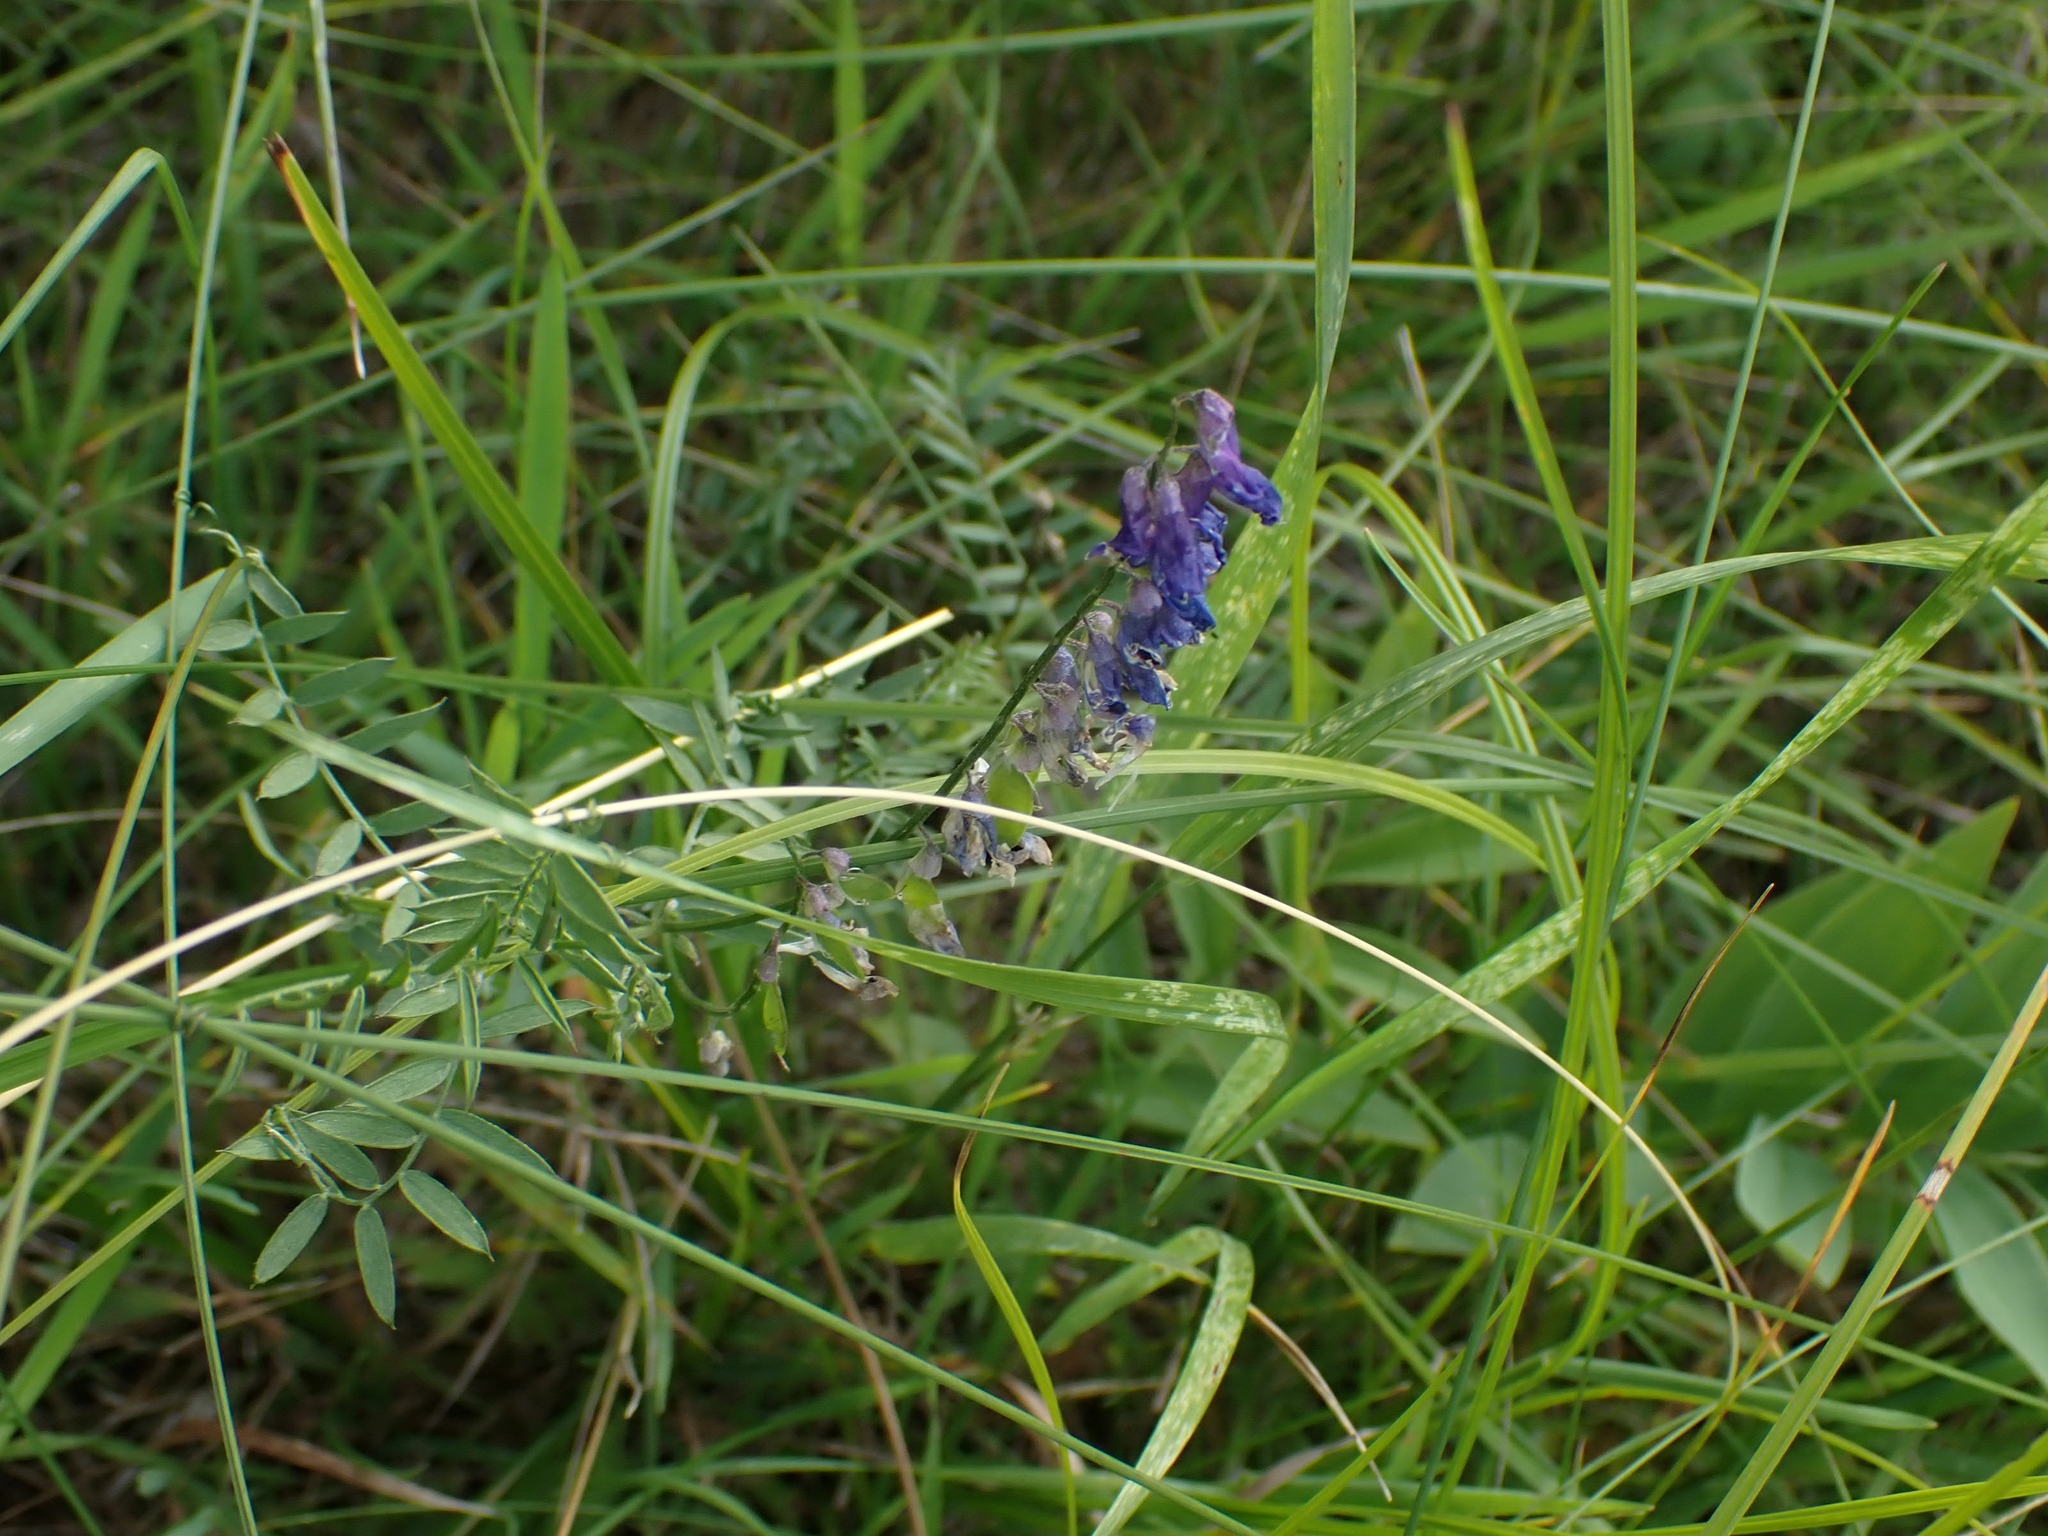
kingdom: Plantae
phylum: Tracheophyta
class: Magnoliopsida
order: Fabales
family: Fabaceae
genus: Vicia
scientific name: Vicia cracca
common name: Bird vetch
